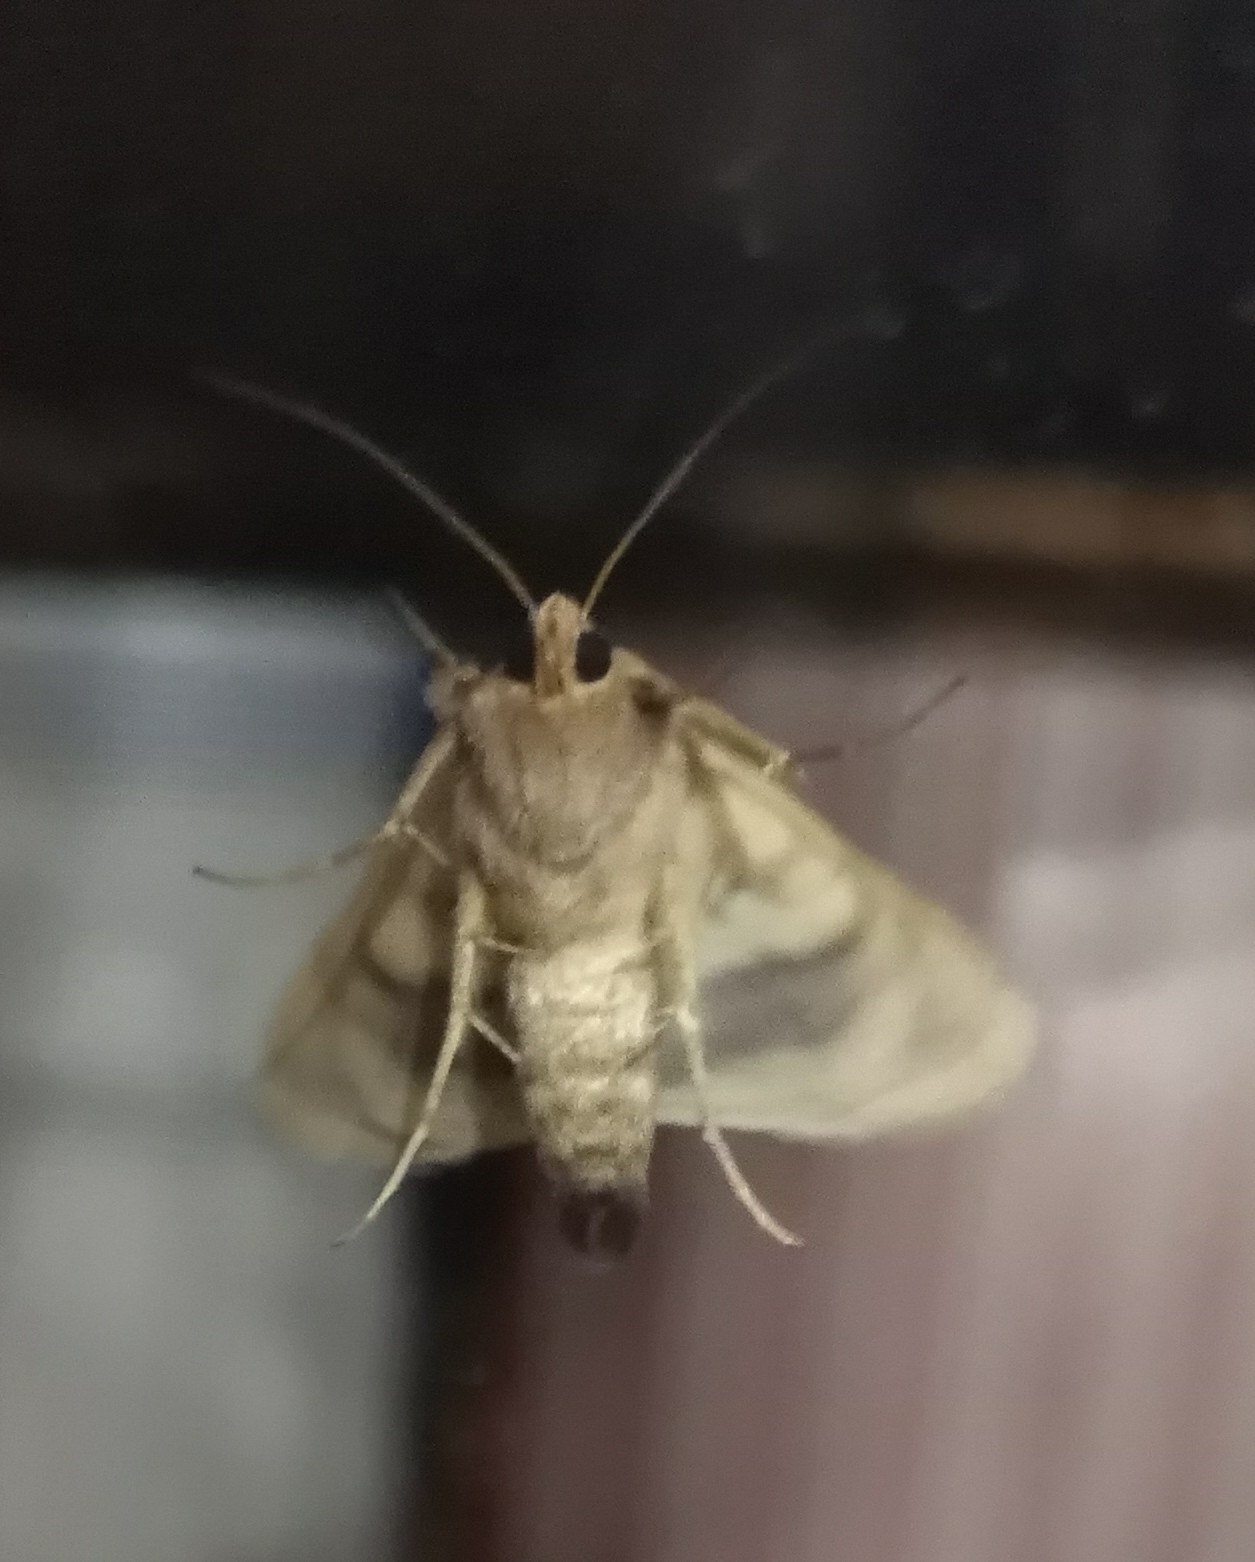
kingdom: Animalia
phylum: Arthropoda
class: Insecta
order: Lepidoptera
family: Noctuidae
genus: Chrysodeixis
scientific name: Chrysodeixis chalcites
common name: Golden twin-spot
